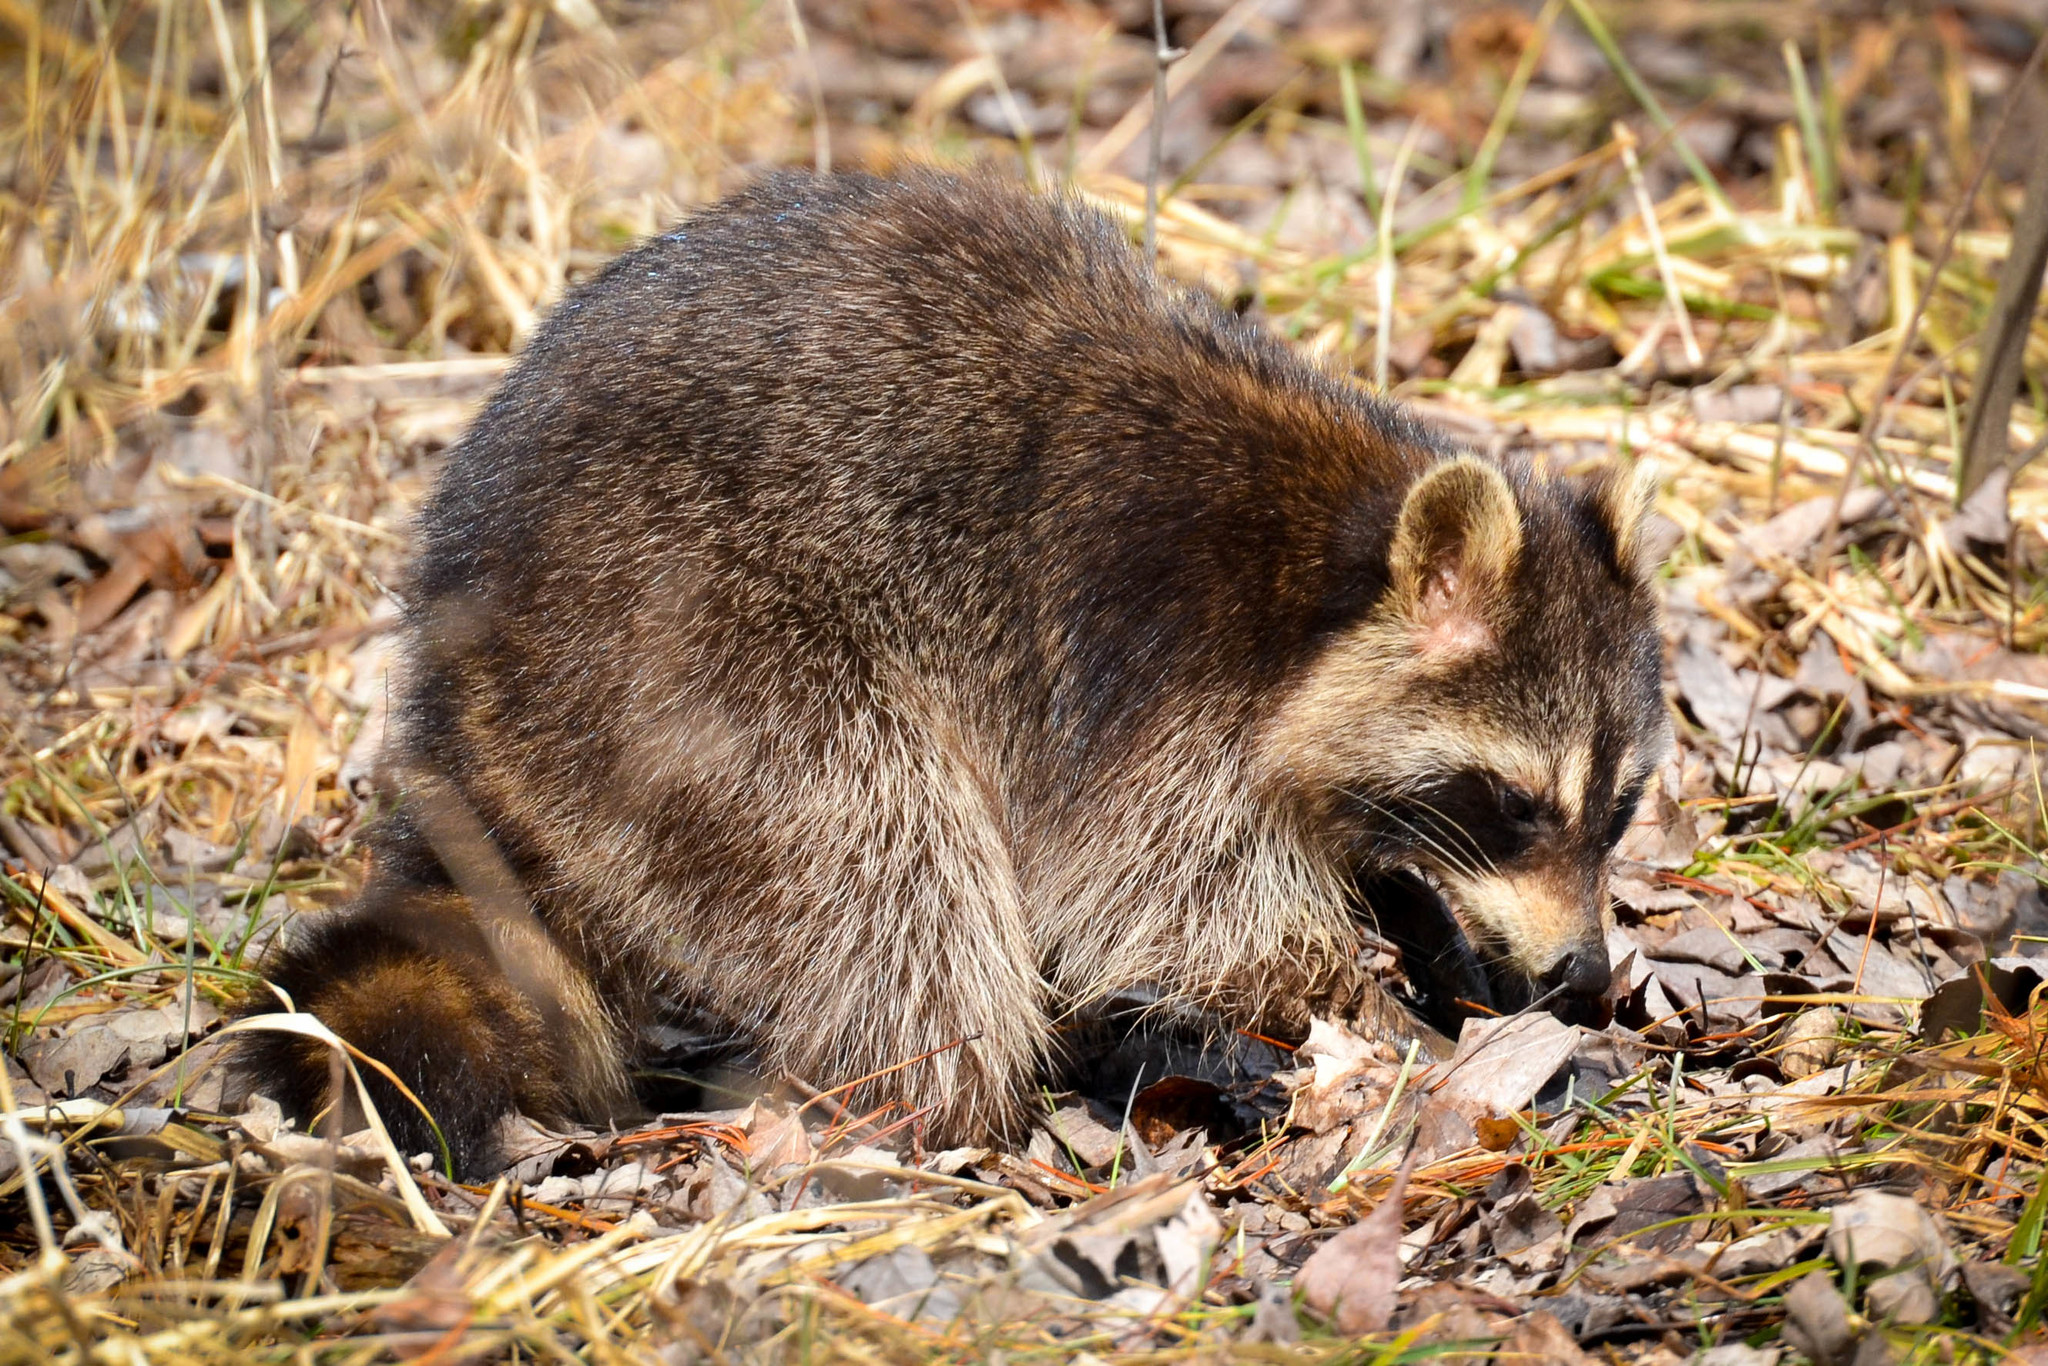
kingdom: Animalia
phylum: Chordata
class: Mammalia
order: Carnivora
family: Procyonidae
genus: Procyon
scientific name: Procyon lotor
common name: Raccoon
